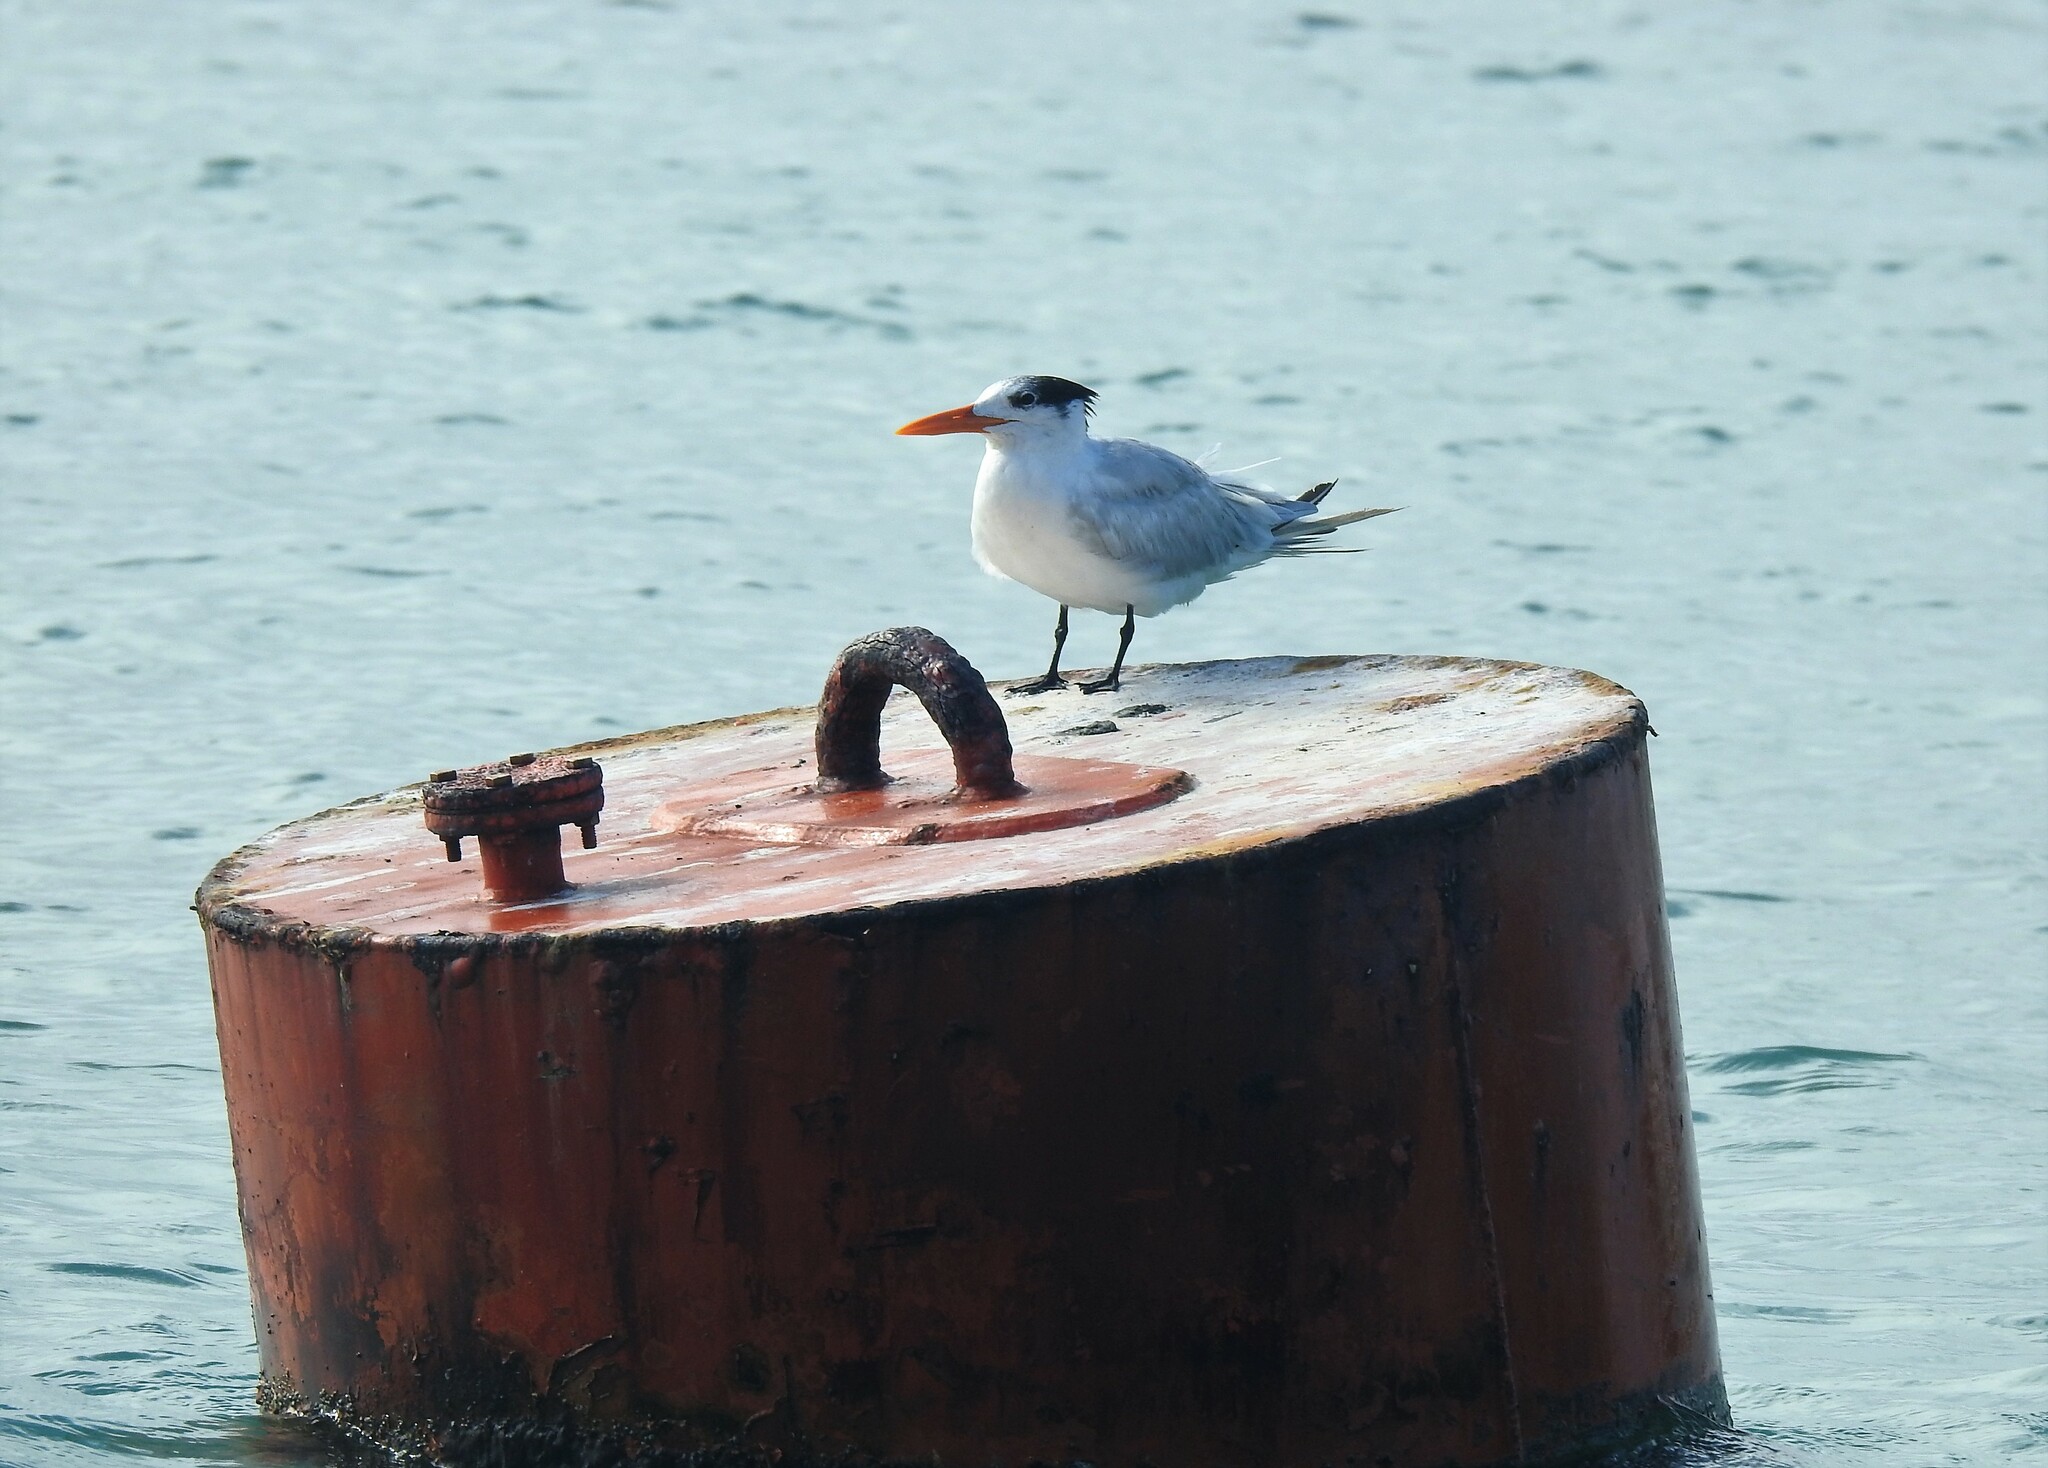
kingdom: Animalia
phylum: Chordata
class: Aves
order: Charadriiformes
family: Laridae
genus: Thalasseus
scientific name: Thalasseus maximus
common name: Royal tern
